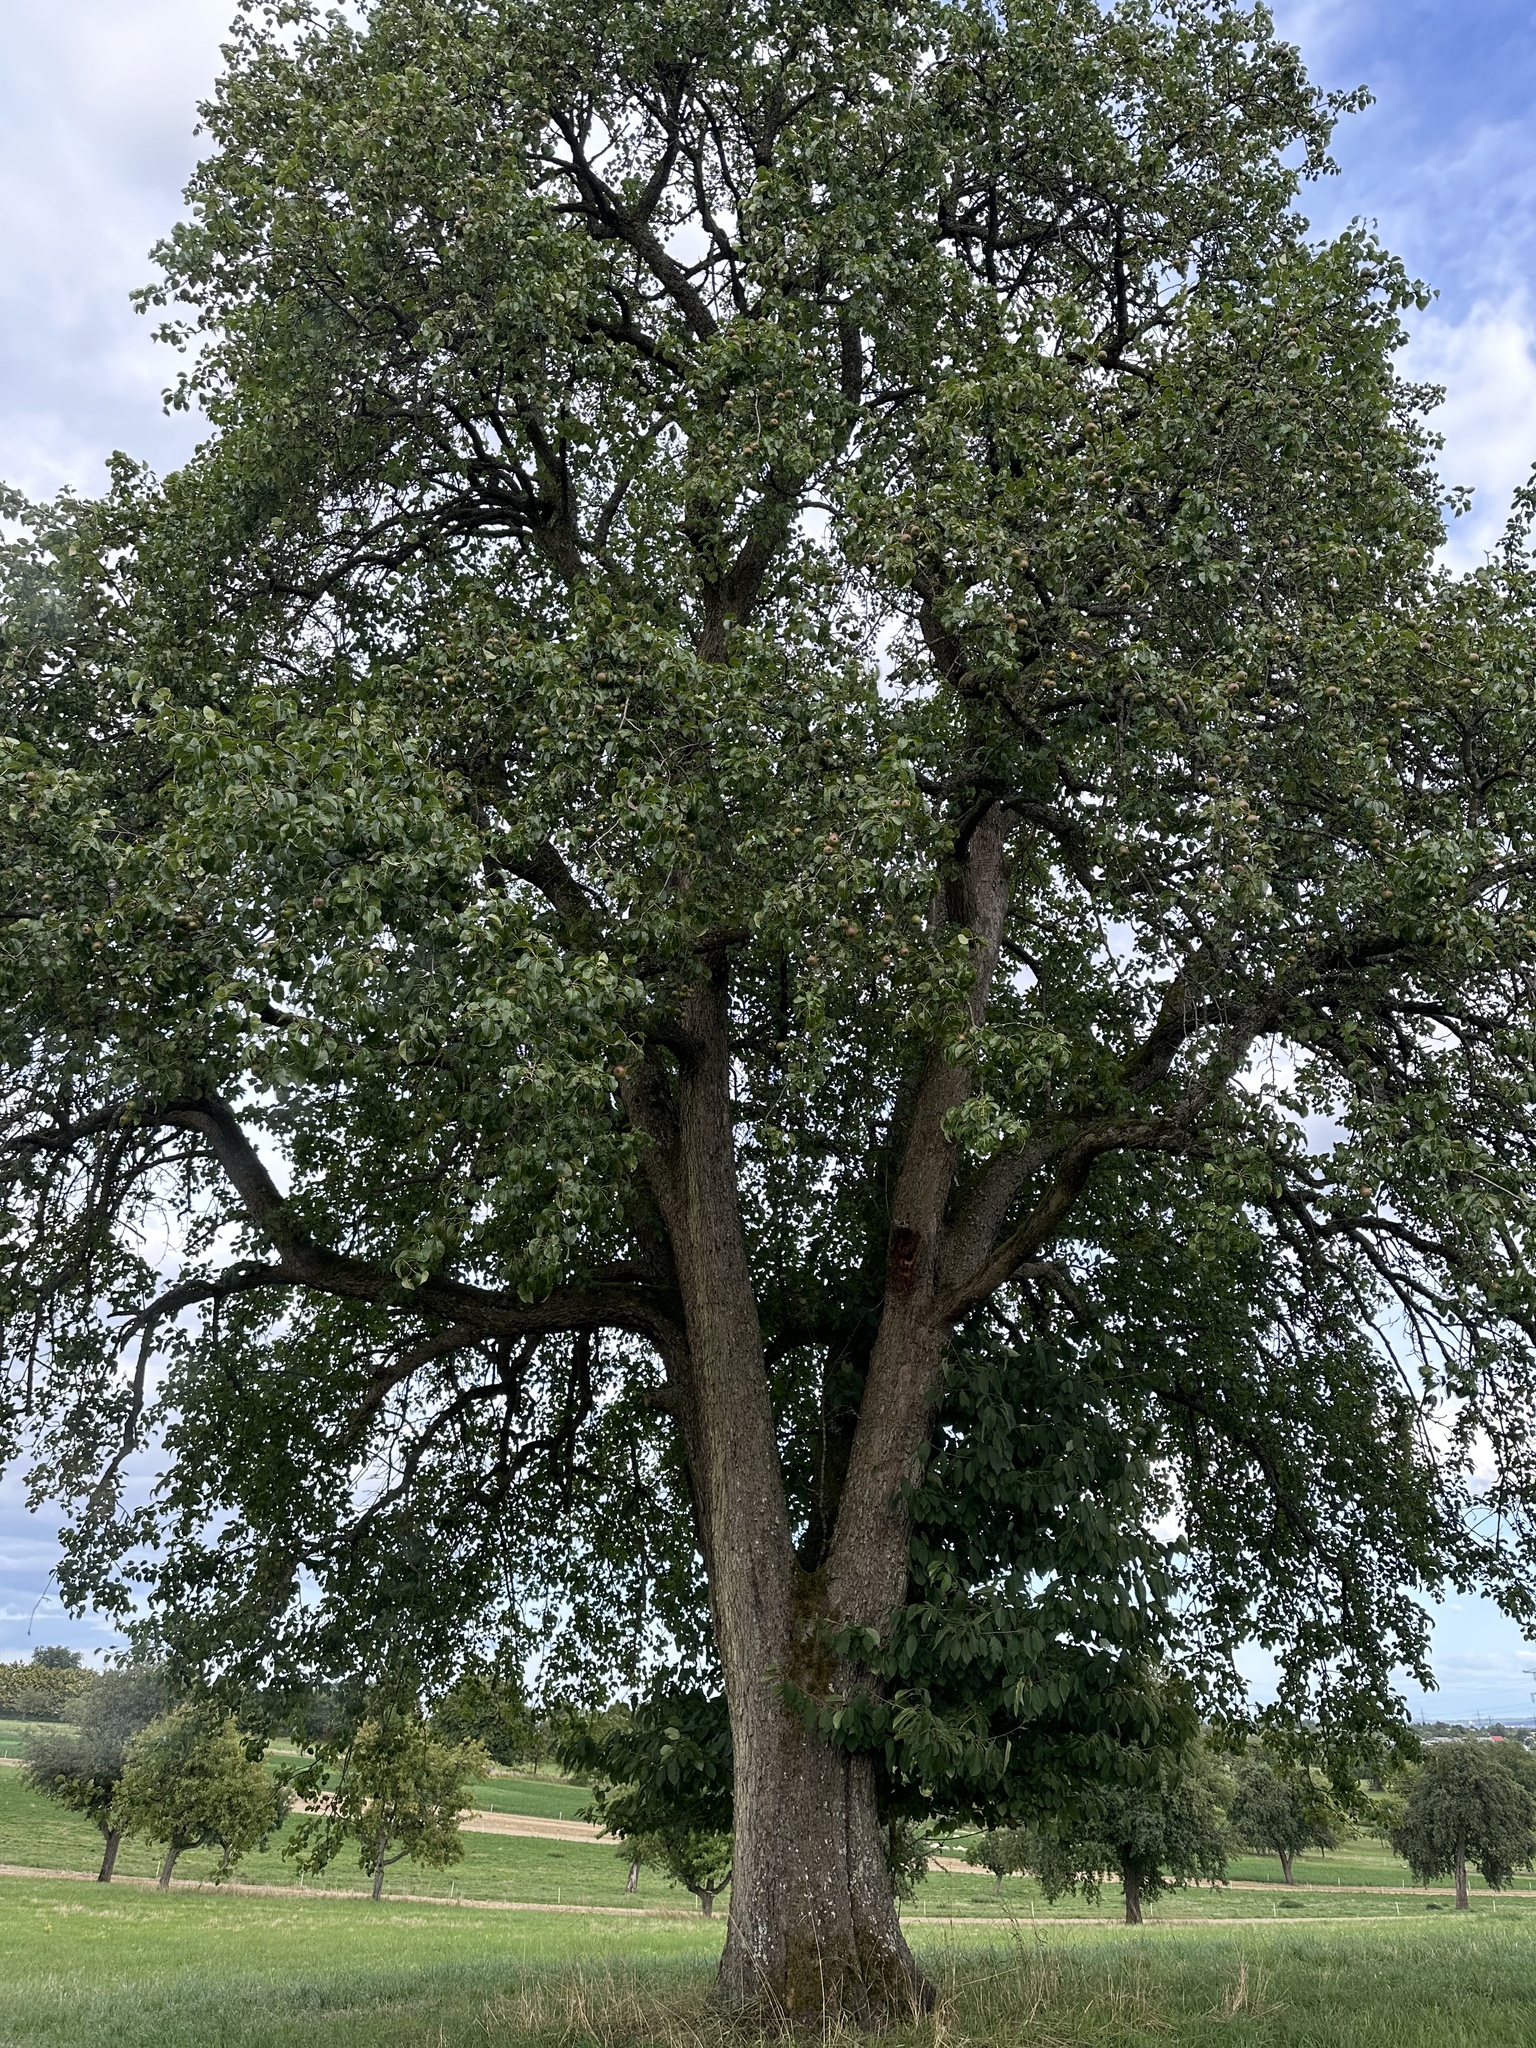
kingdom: Plantae
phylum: Tracheophyta
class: Magnoliopsida
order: Rosales
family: Rosaceae
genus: Pyrus
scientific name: Pyrus communis
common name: Pear
